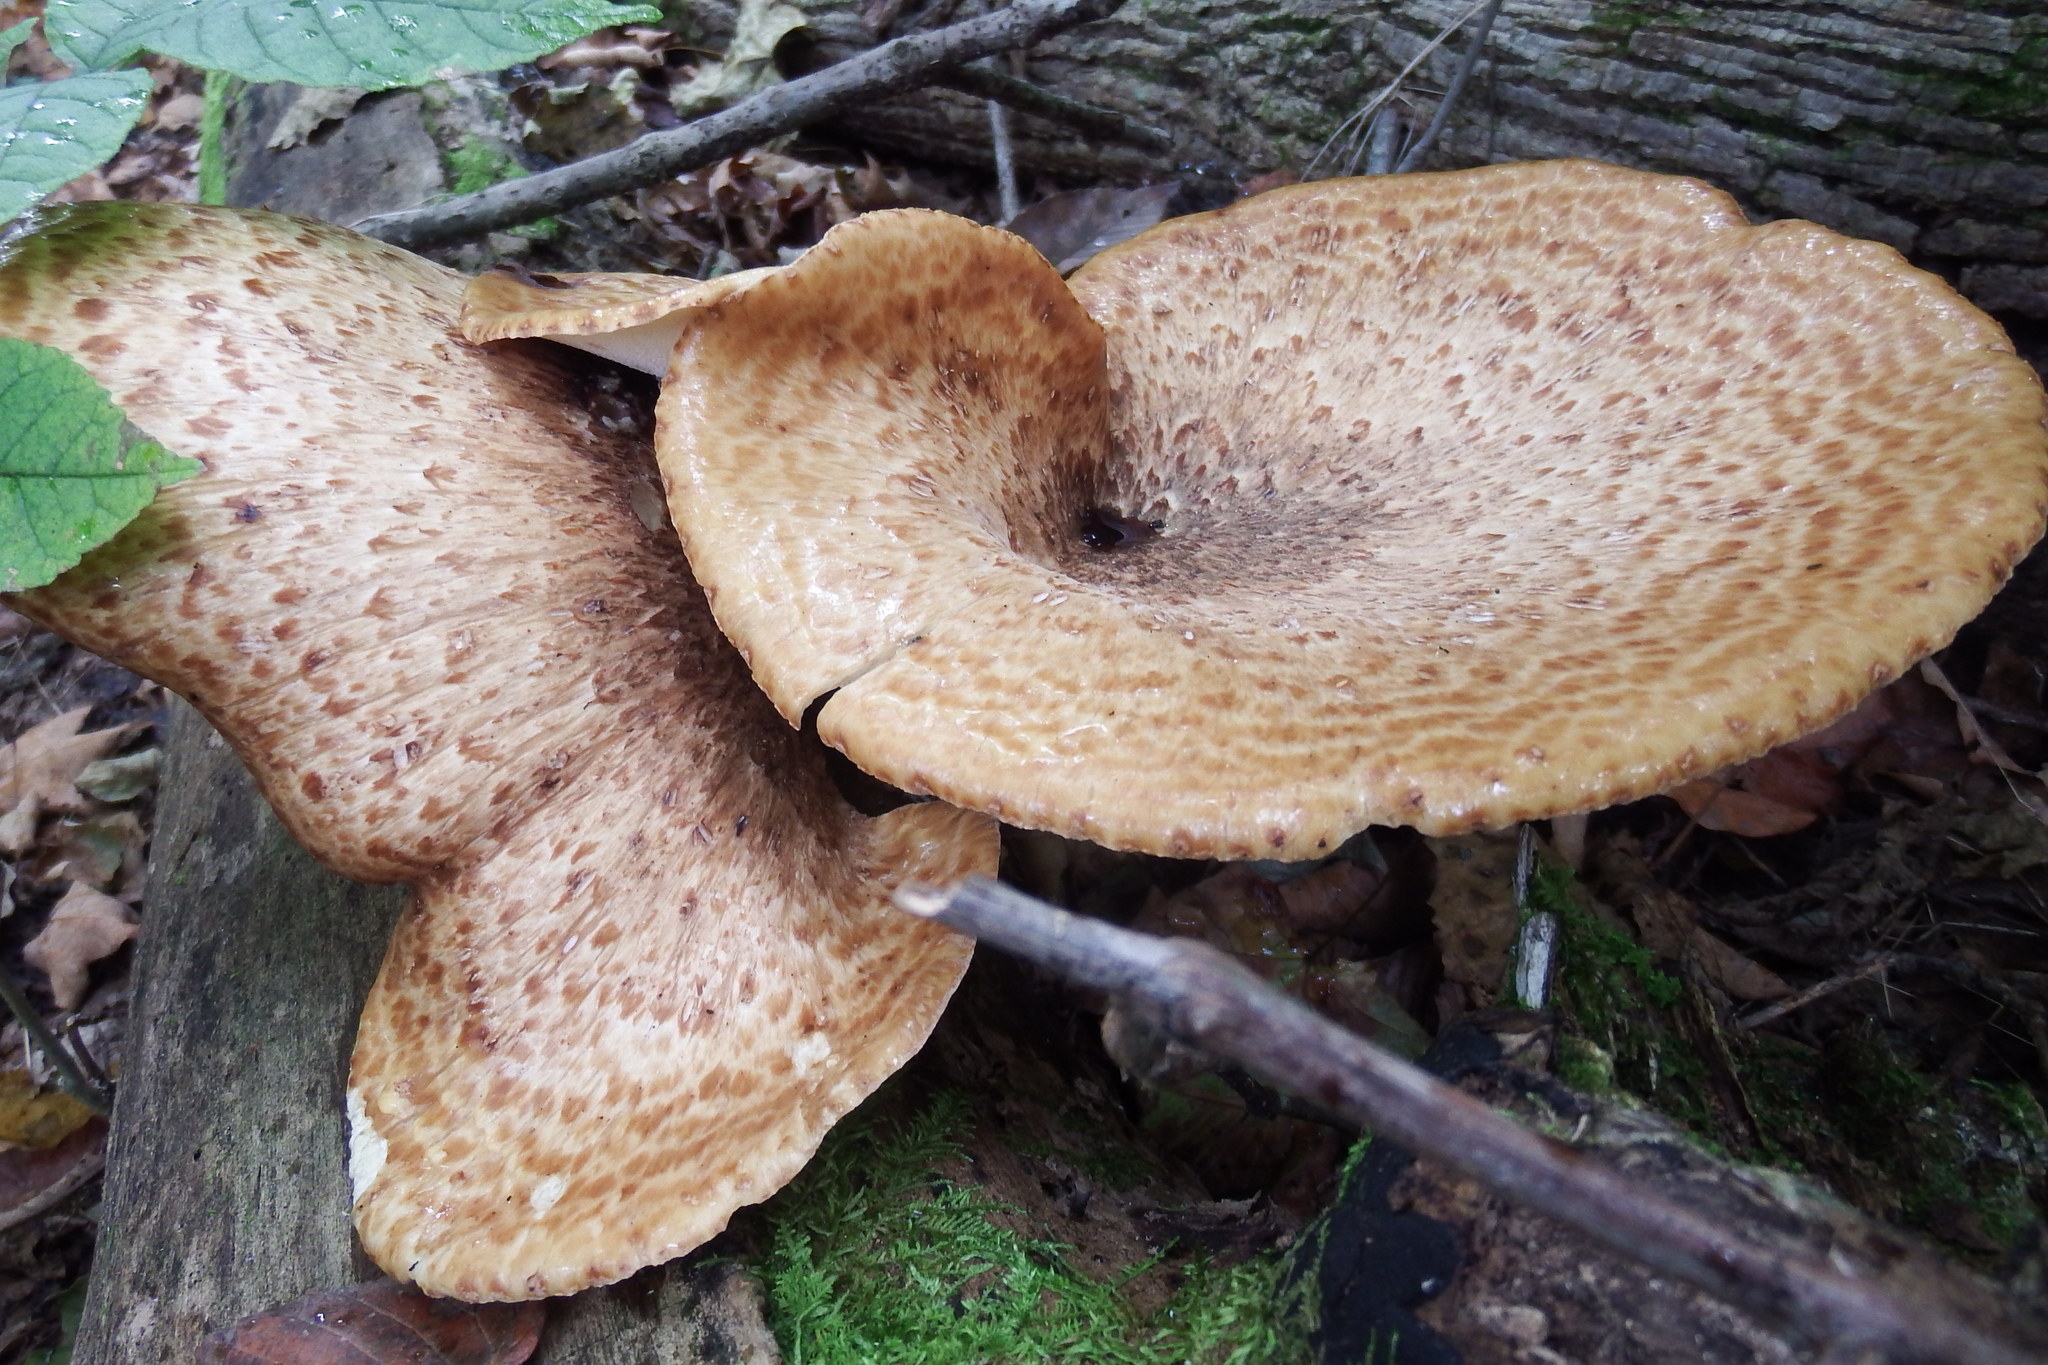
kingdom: Fungi
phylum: Basidiomycota
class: Agaricomycetes
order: Polyporales
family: Polyporaceae
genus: Cerioporus
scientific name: Cerioporus squamosus
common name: Dryad's saddle
